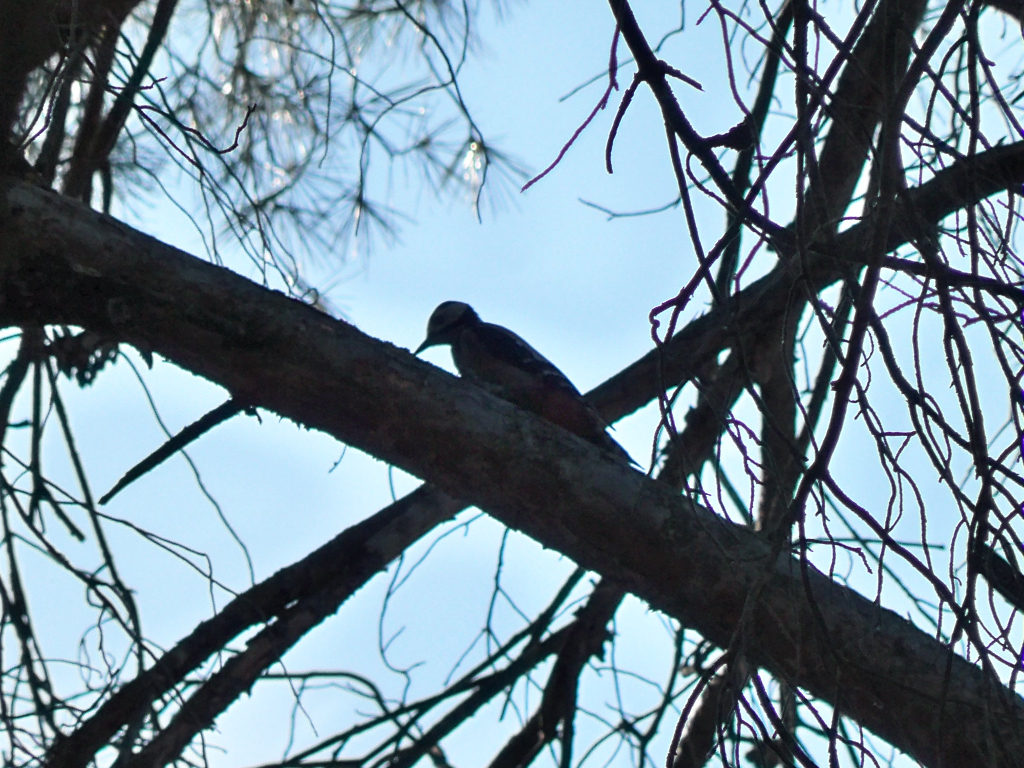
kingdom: Animalia
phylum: Chordata
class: Aves
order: Piciformes
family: Picidae
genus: Dendrocopos
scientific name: Dendrocopos major
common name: Great spotted woodpecker
